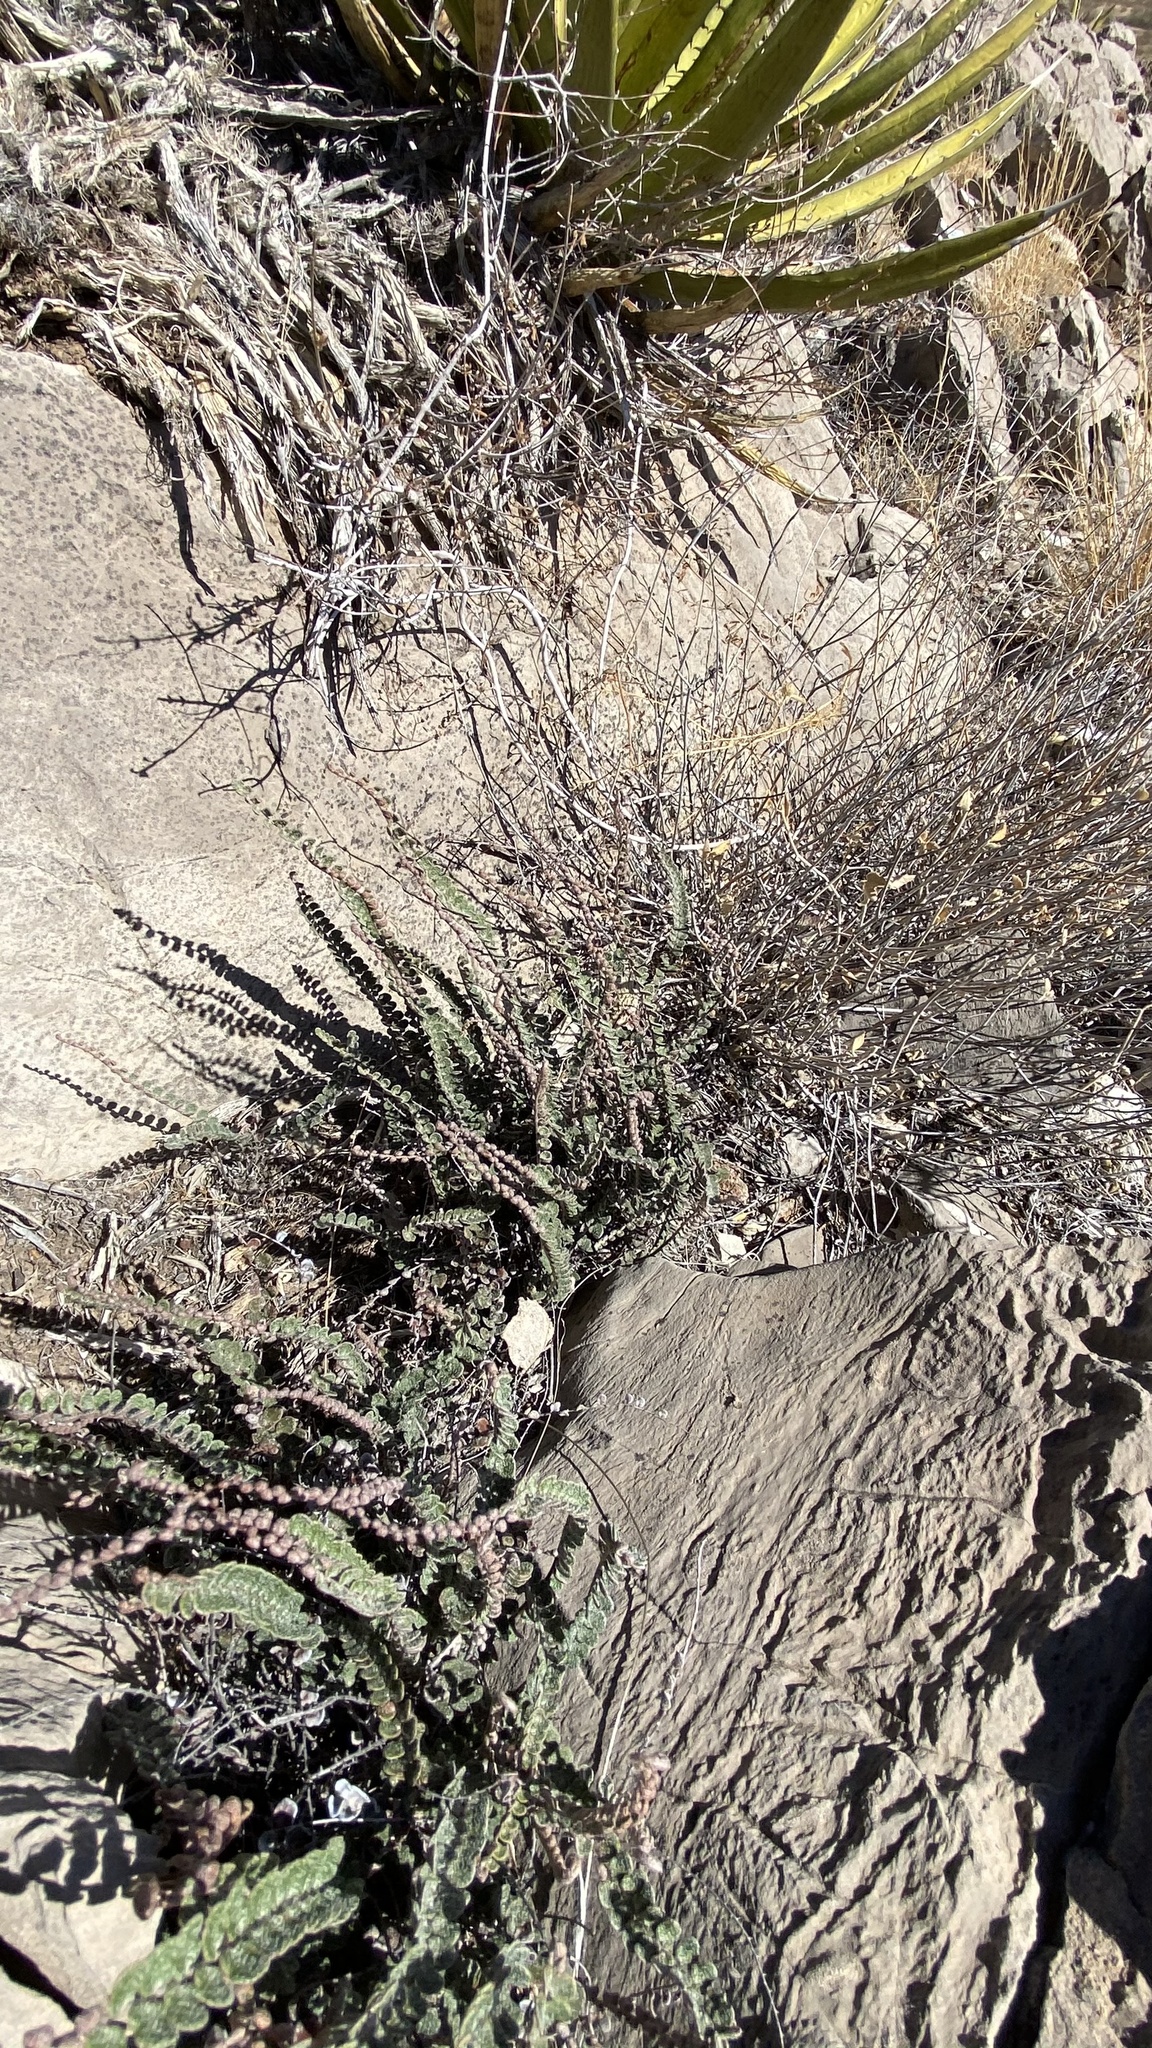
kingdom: Plantae
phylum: Tracheophyta
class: Polypodiopsida
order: Polypodiales
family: Pteridaceae
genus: Astrolepis
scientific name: Astrolepis cochisensis
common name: Scaly cloak fern
